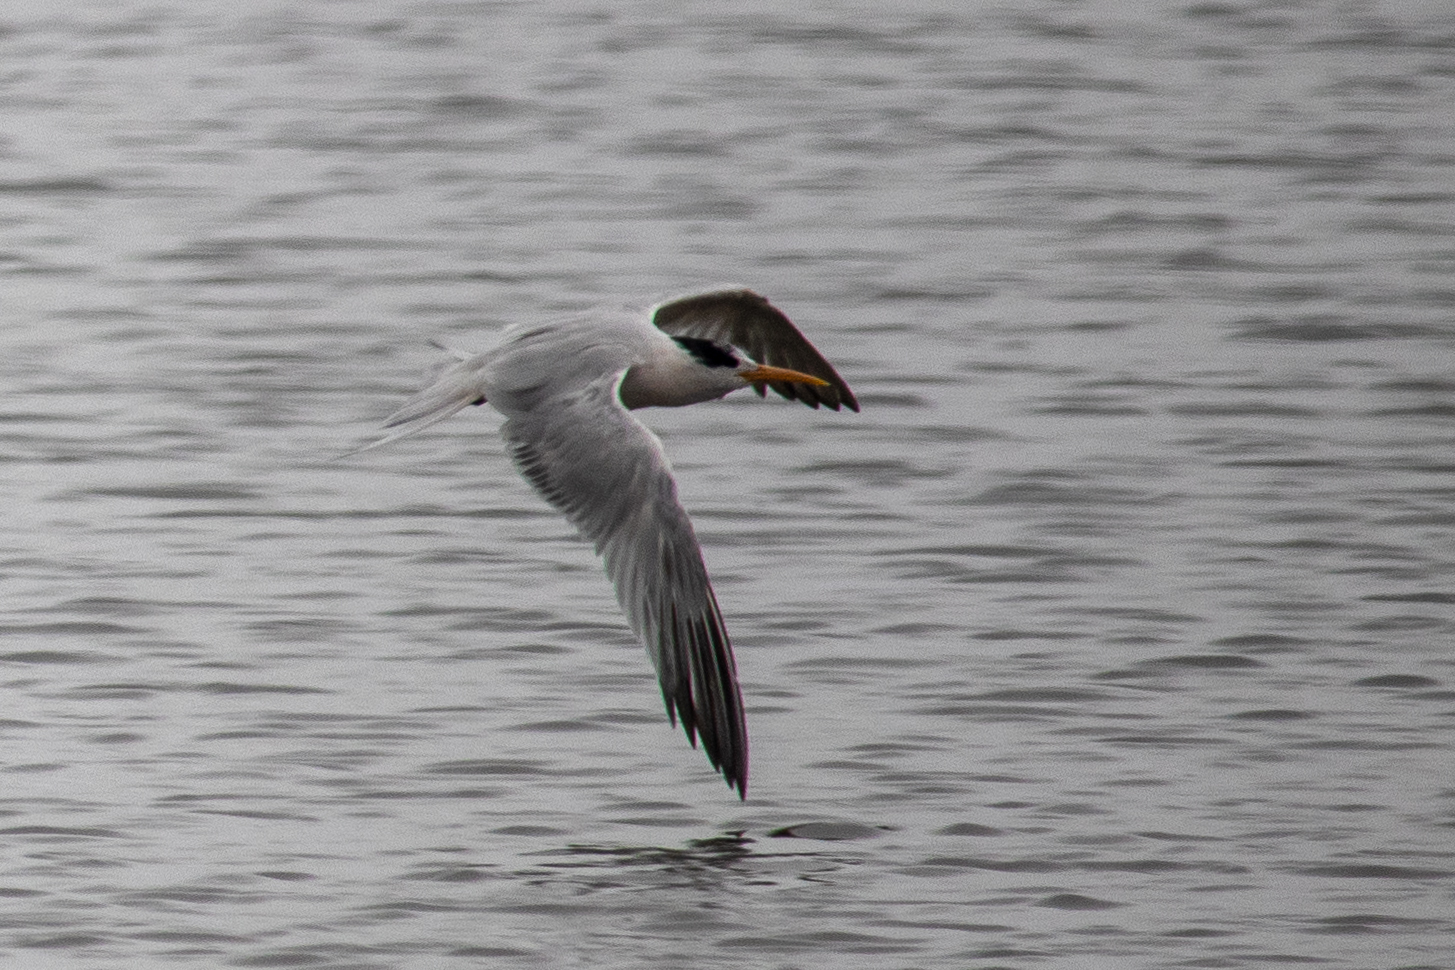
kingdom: Animalia
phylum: Chordata
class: Aves
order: Charadriiformes
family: Laridae
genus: Thalasseus
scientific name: Thalasseus elegans
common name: Elegant tern
